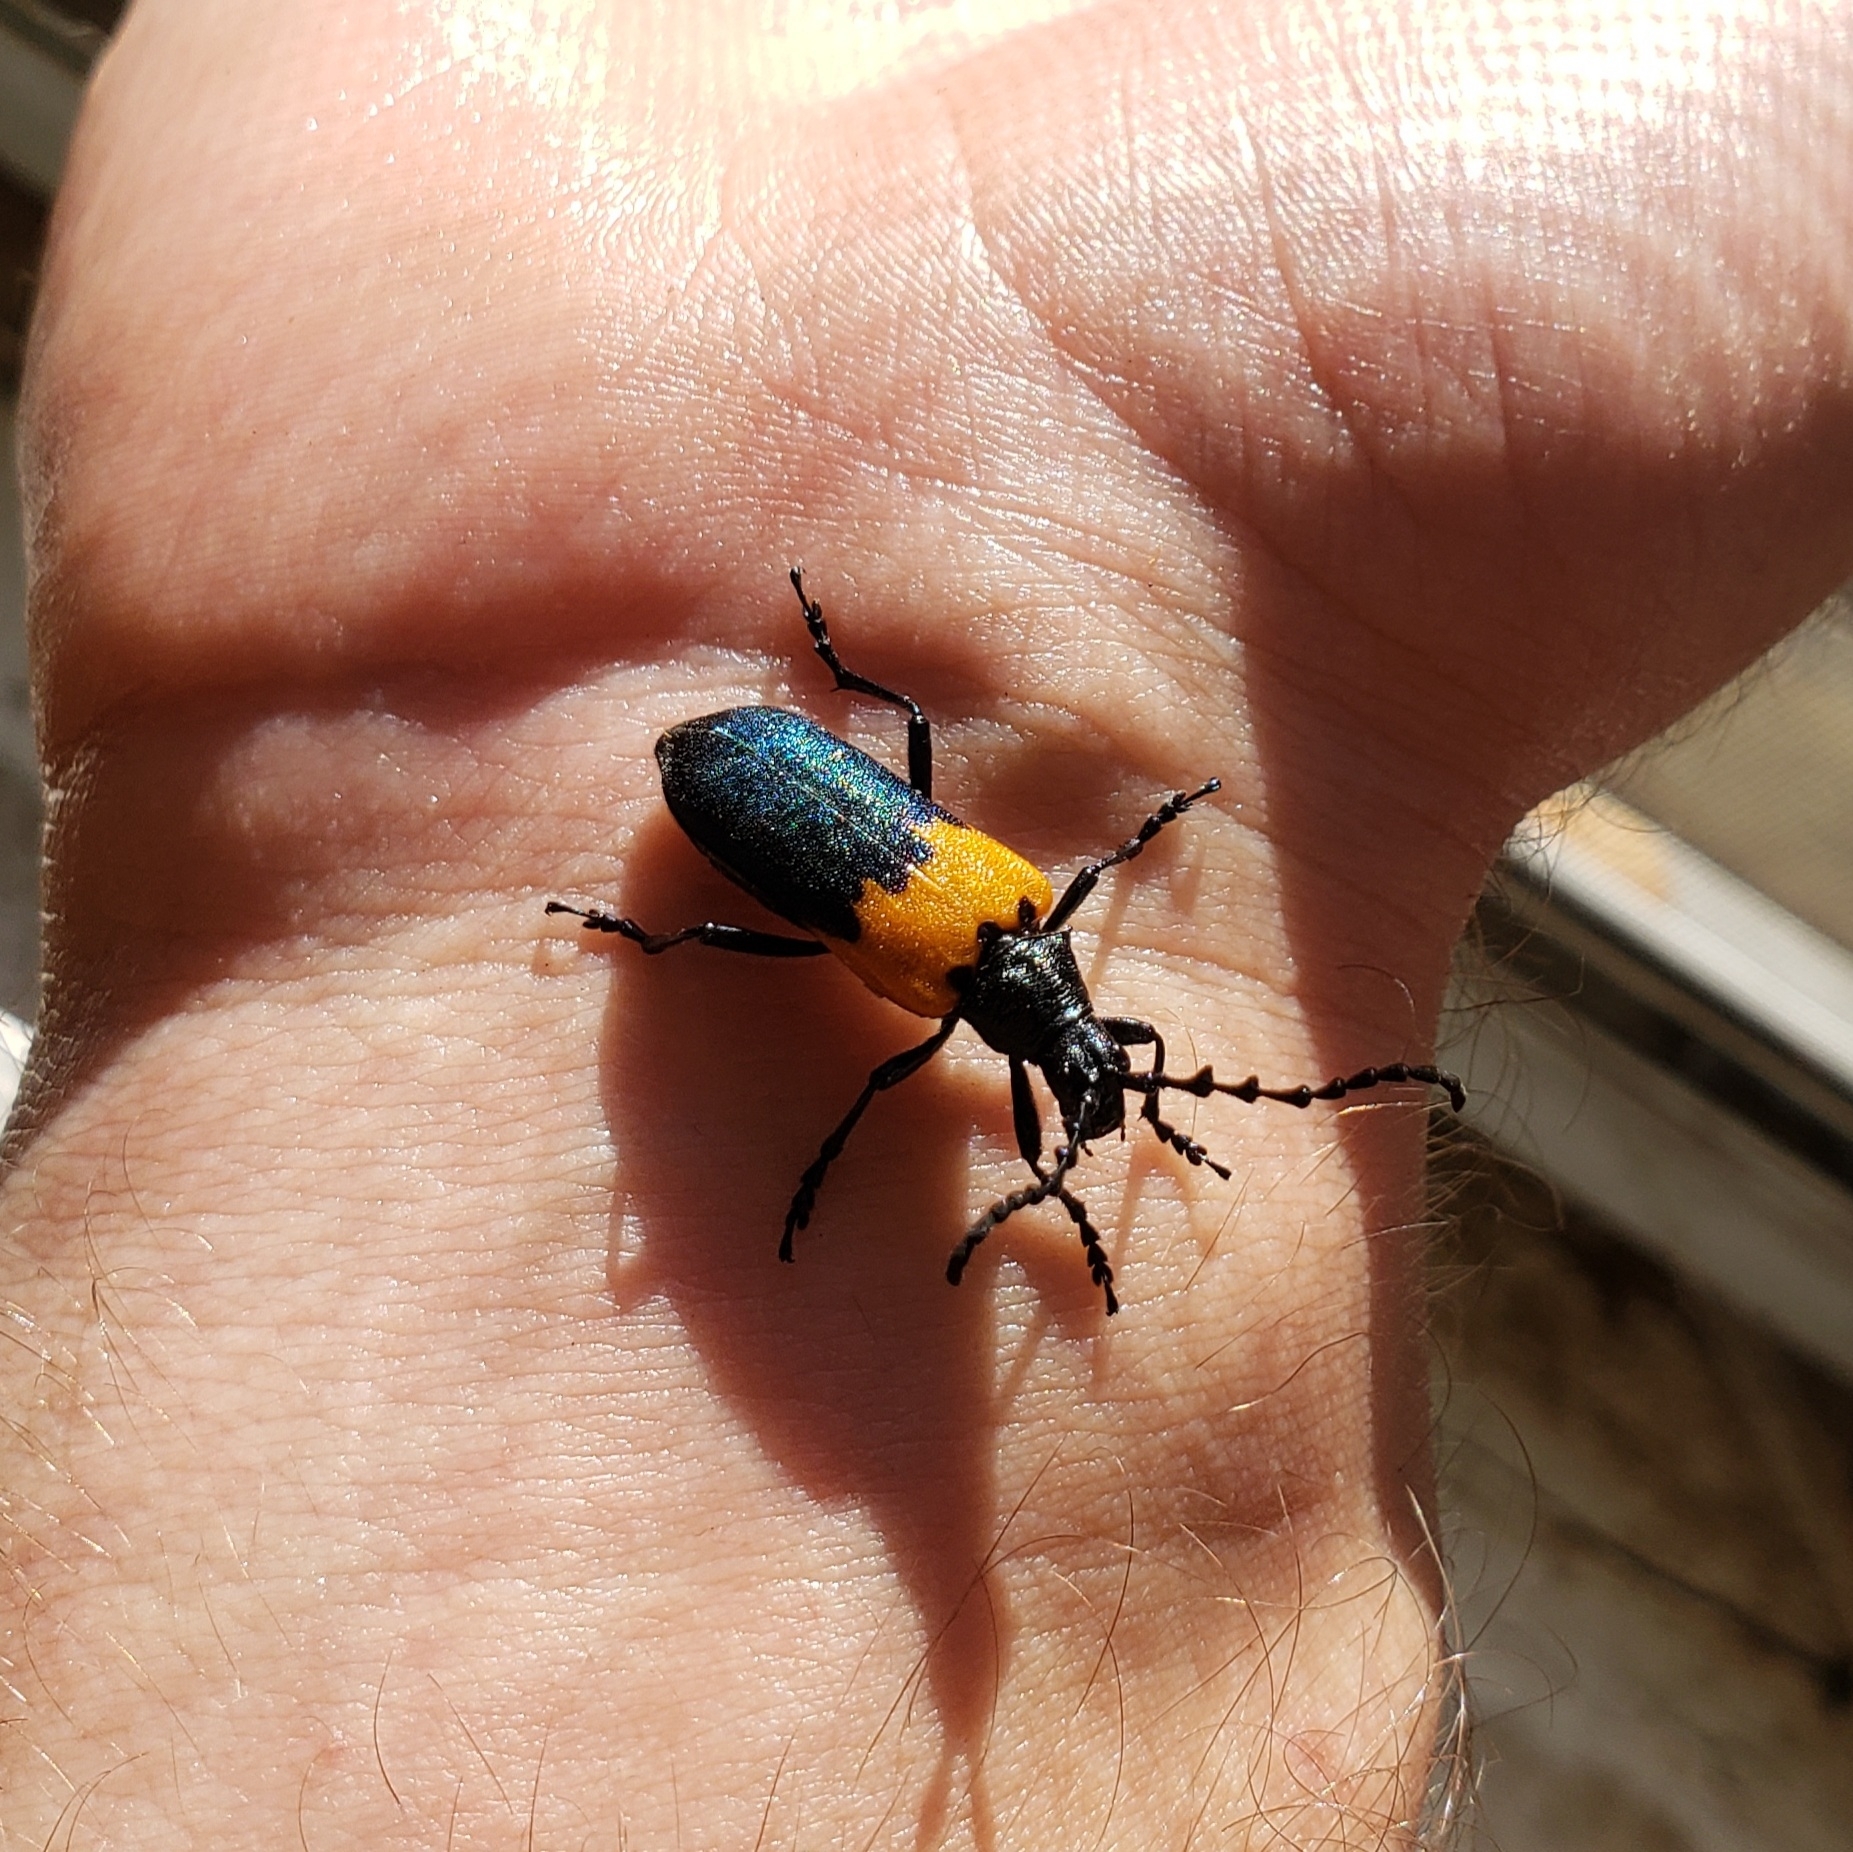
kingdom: Animalia
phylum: Arthropoda
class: Insecta
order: Coleoptera
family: Cerambycidae
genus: Desmocerus
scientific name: Desmocerus palliatus
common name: Eastern elderberry borer
